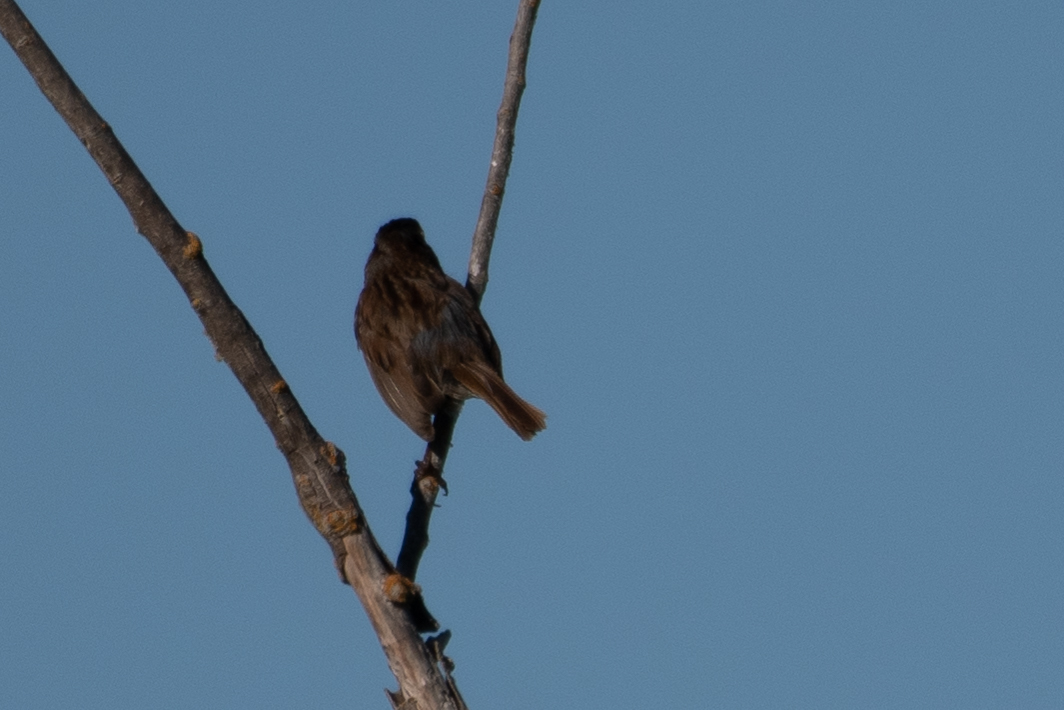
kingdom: Animalia
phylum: Chordata
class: Aves
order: Passeriformes
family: Passerellidae
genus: Melospiza
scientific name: Melospiza melodia
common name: Song sparrow
